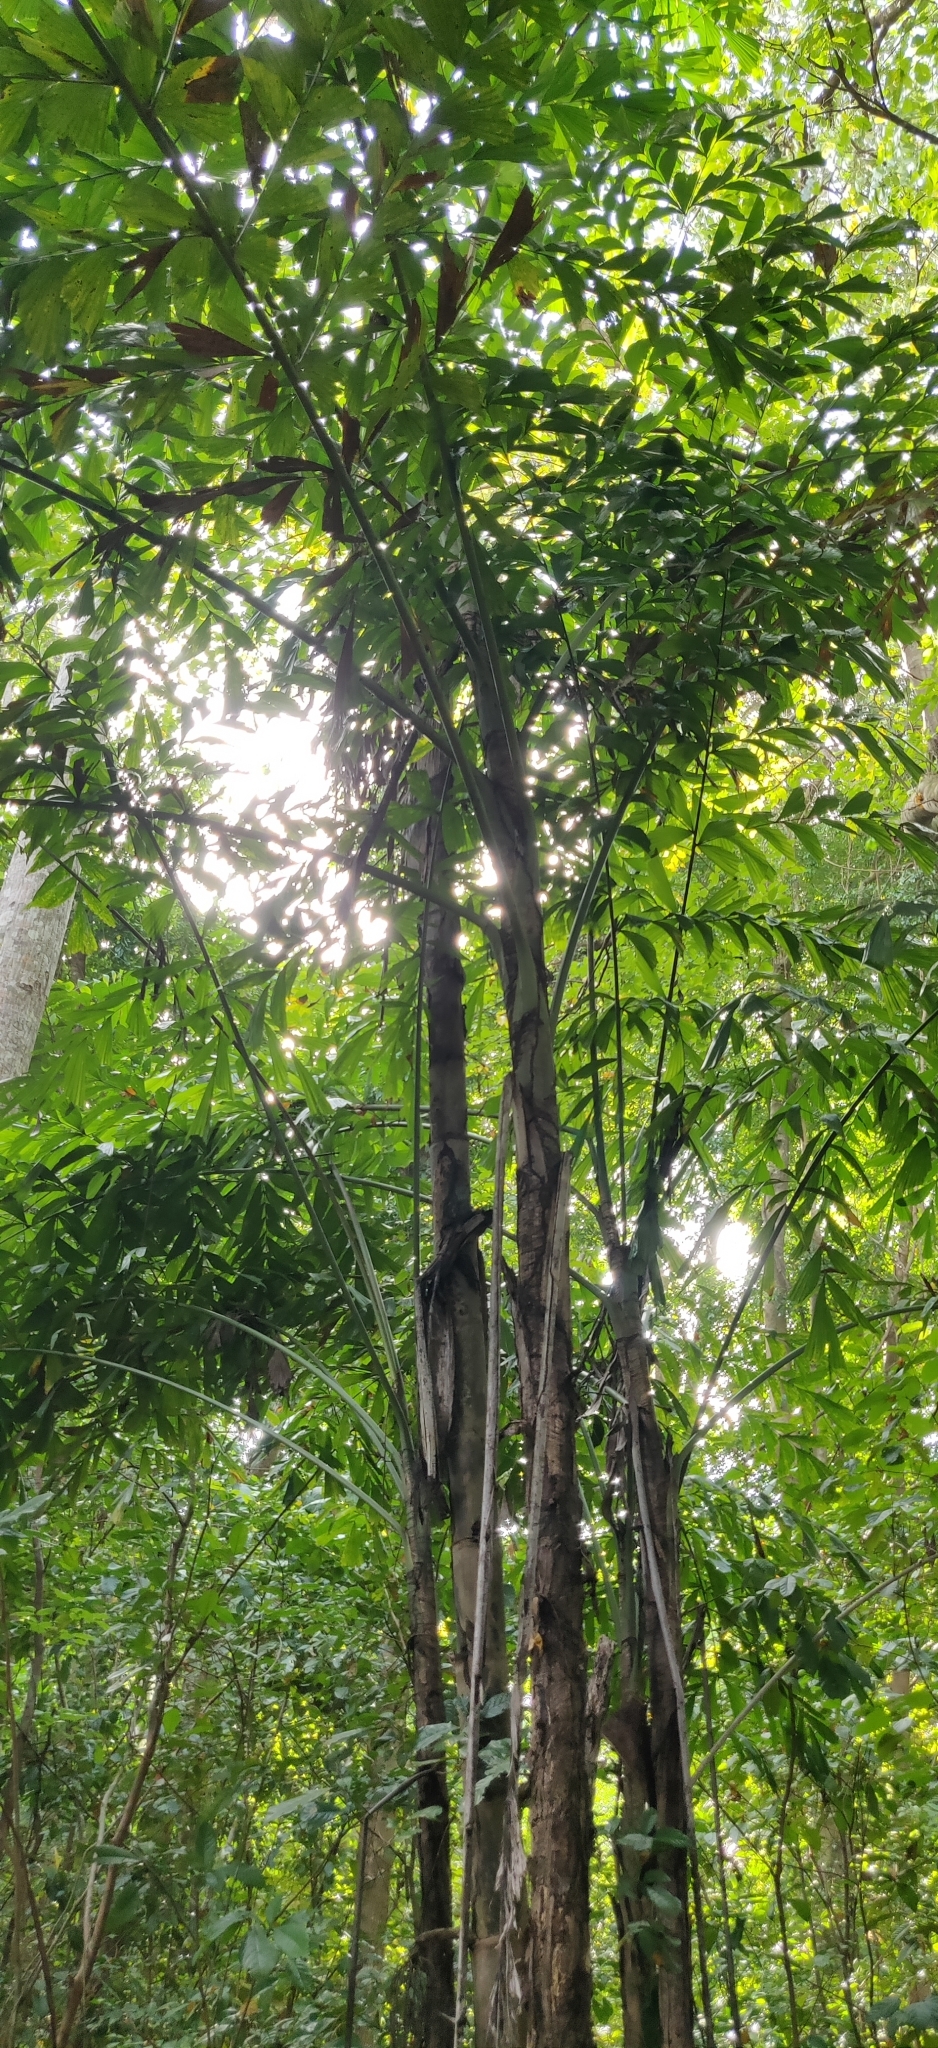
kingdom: Plantae
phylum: Tracheophyta
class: Liliopsida
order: Arecales
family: Arecaceae
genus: Caryota
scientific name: Caryota mitis
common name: Burmese fishtail palm
